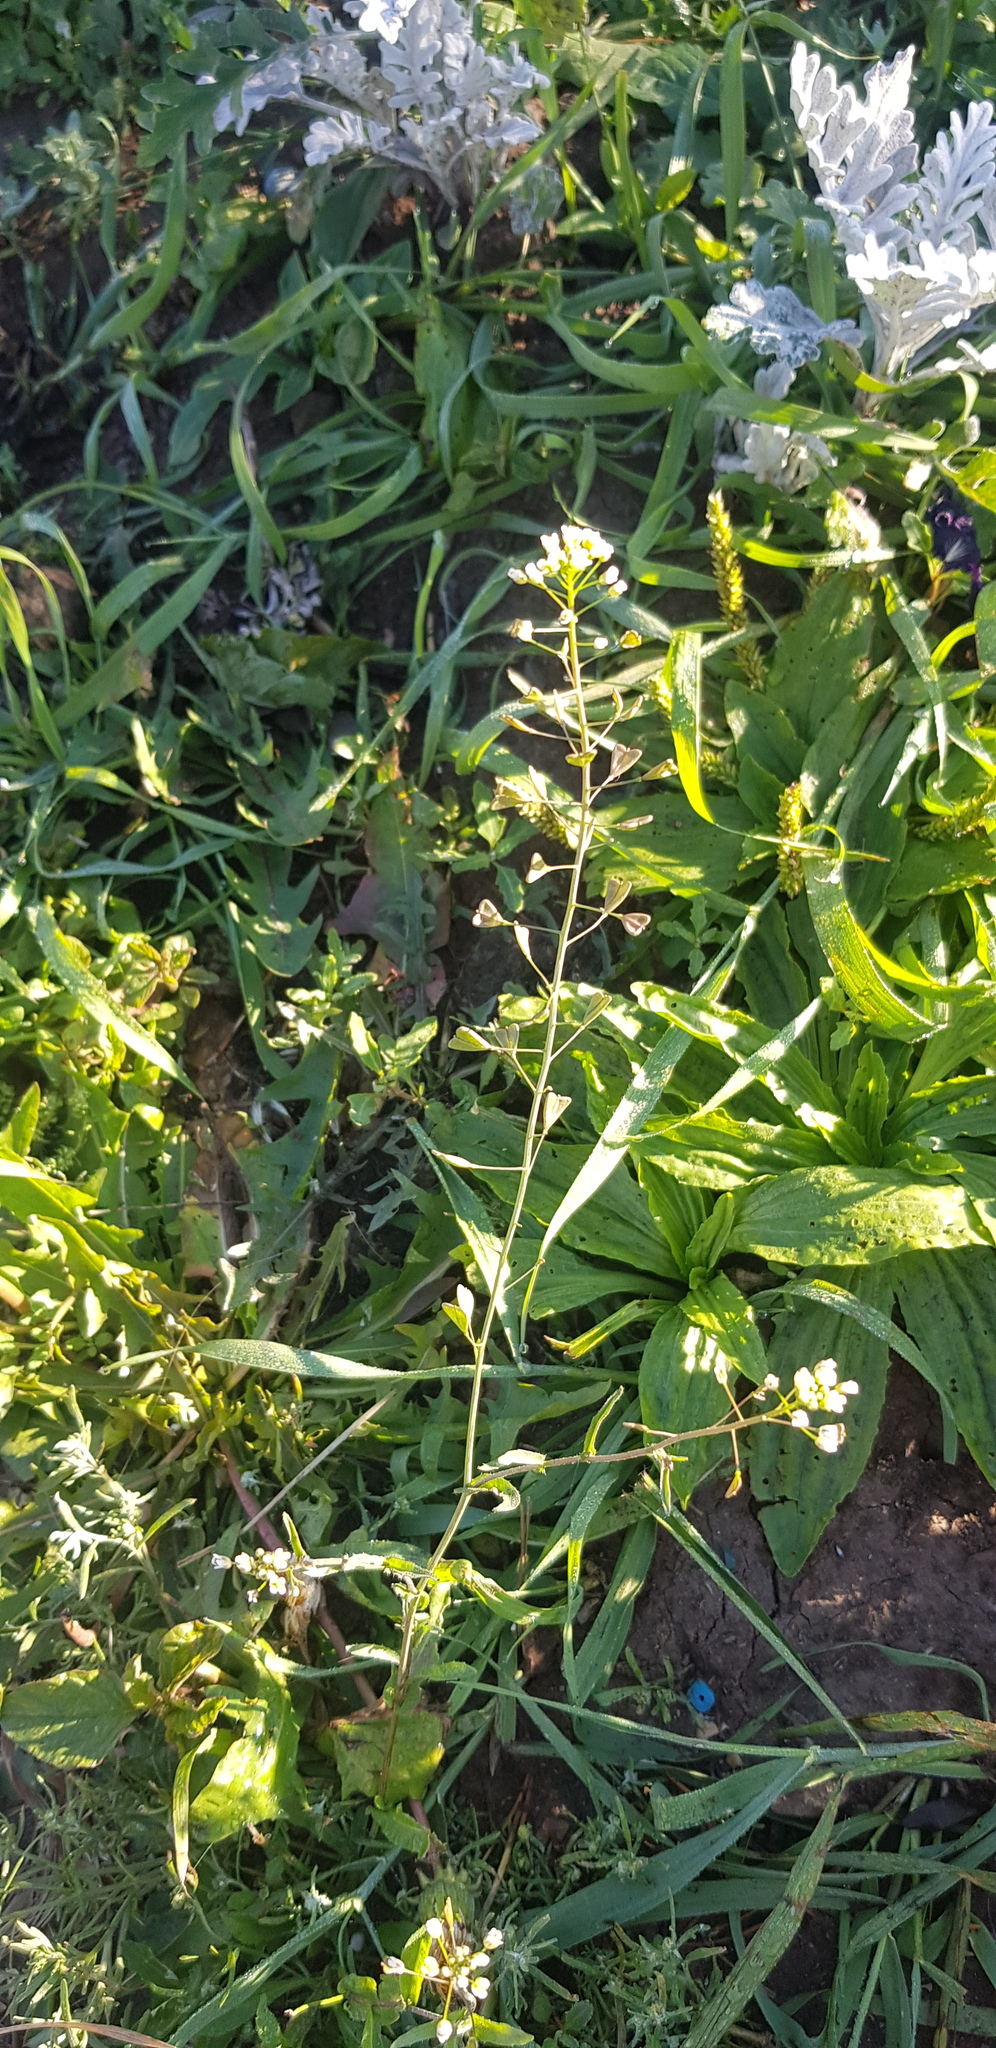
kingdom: Plantae
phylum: Tracheophyta
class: Magnoliopsida
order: Brassicales
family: Brassicaceae
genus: Capsella
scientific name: Capsella bursa-pastoris
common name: Shepherd's purse
